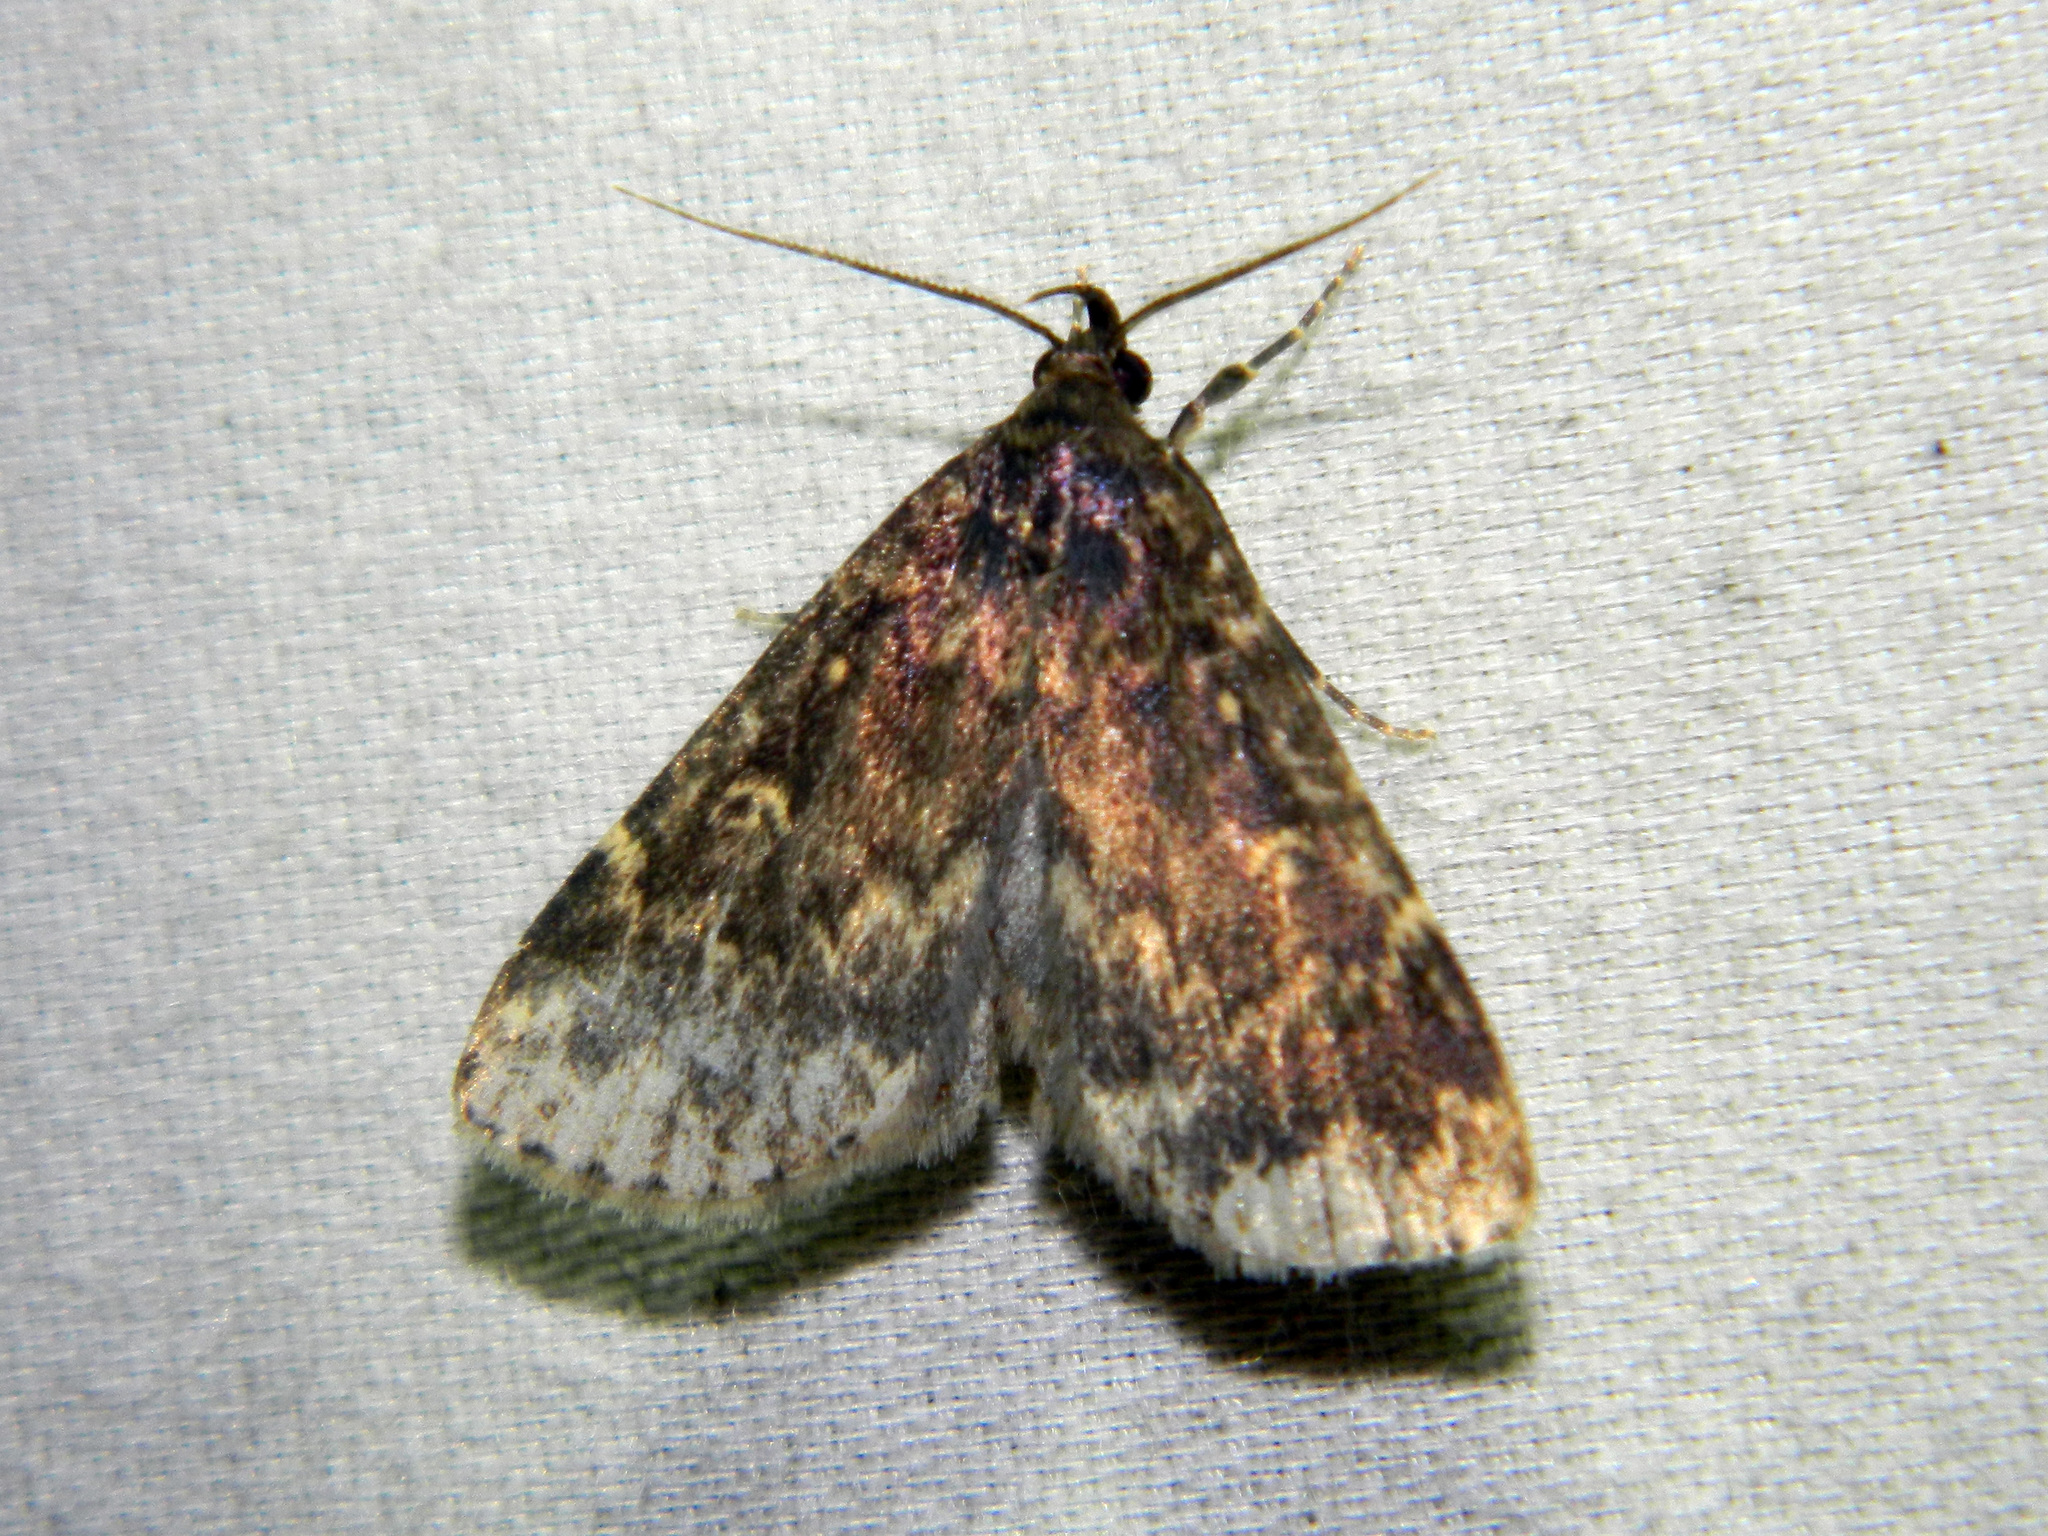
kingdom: Animalia
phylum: Arthropoda
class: Insecta
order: Lepidoptera
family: Erebidae
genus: Idia
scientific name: Idia lubricalis
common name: Twin-striped tabby
